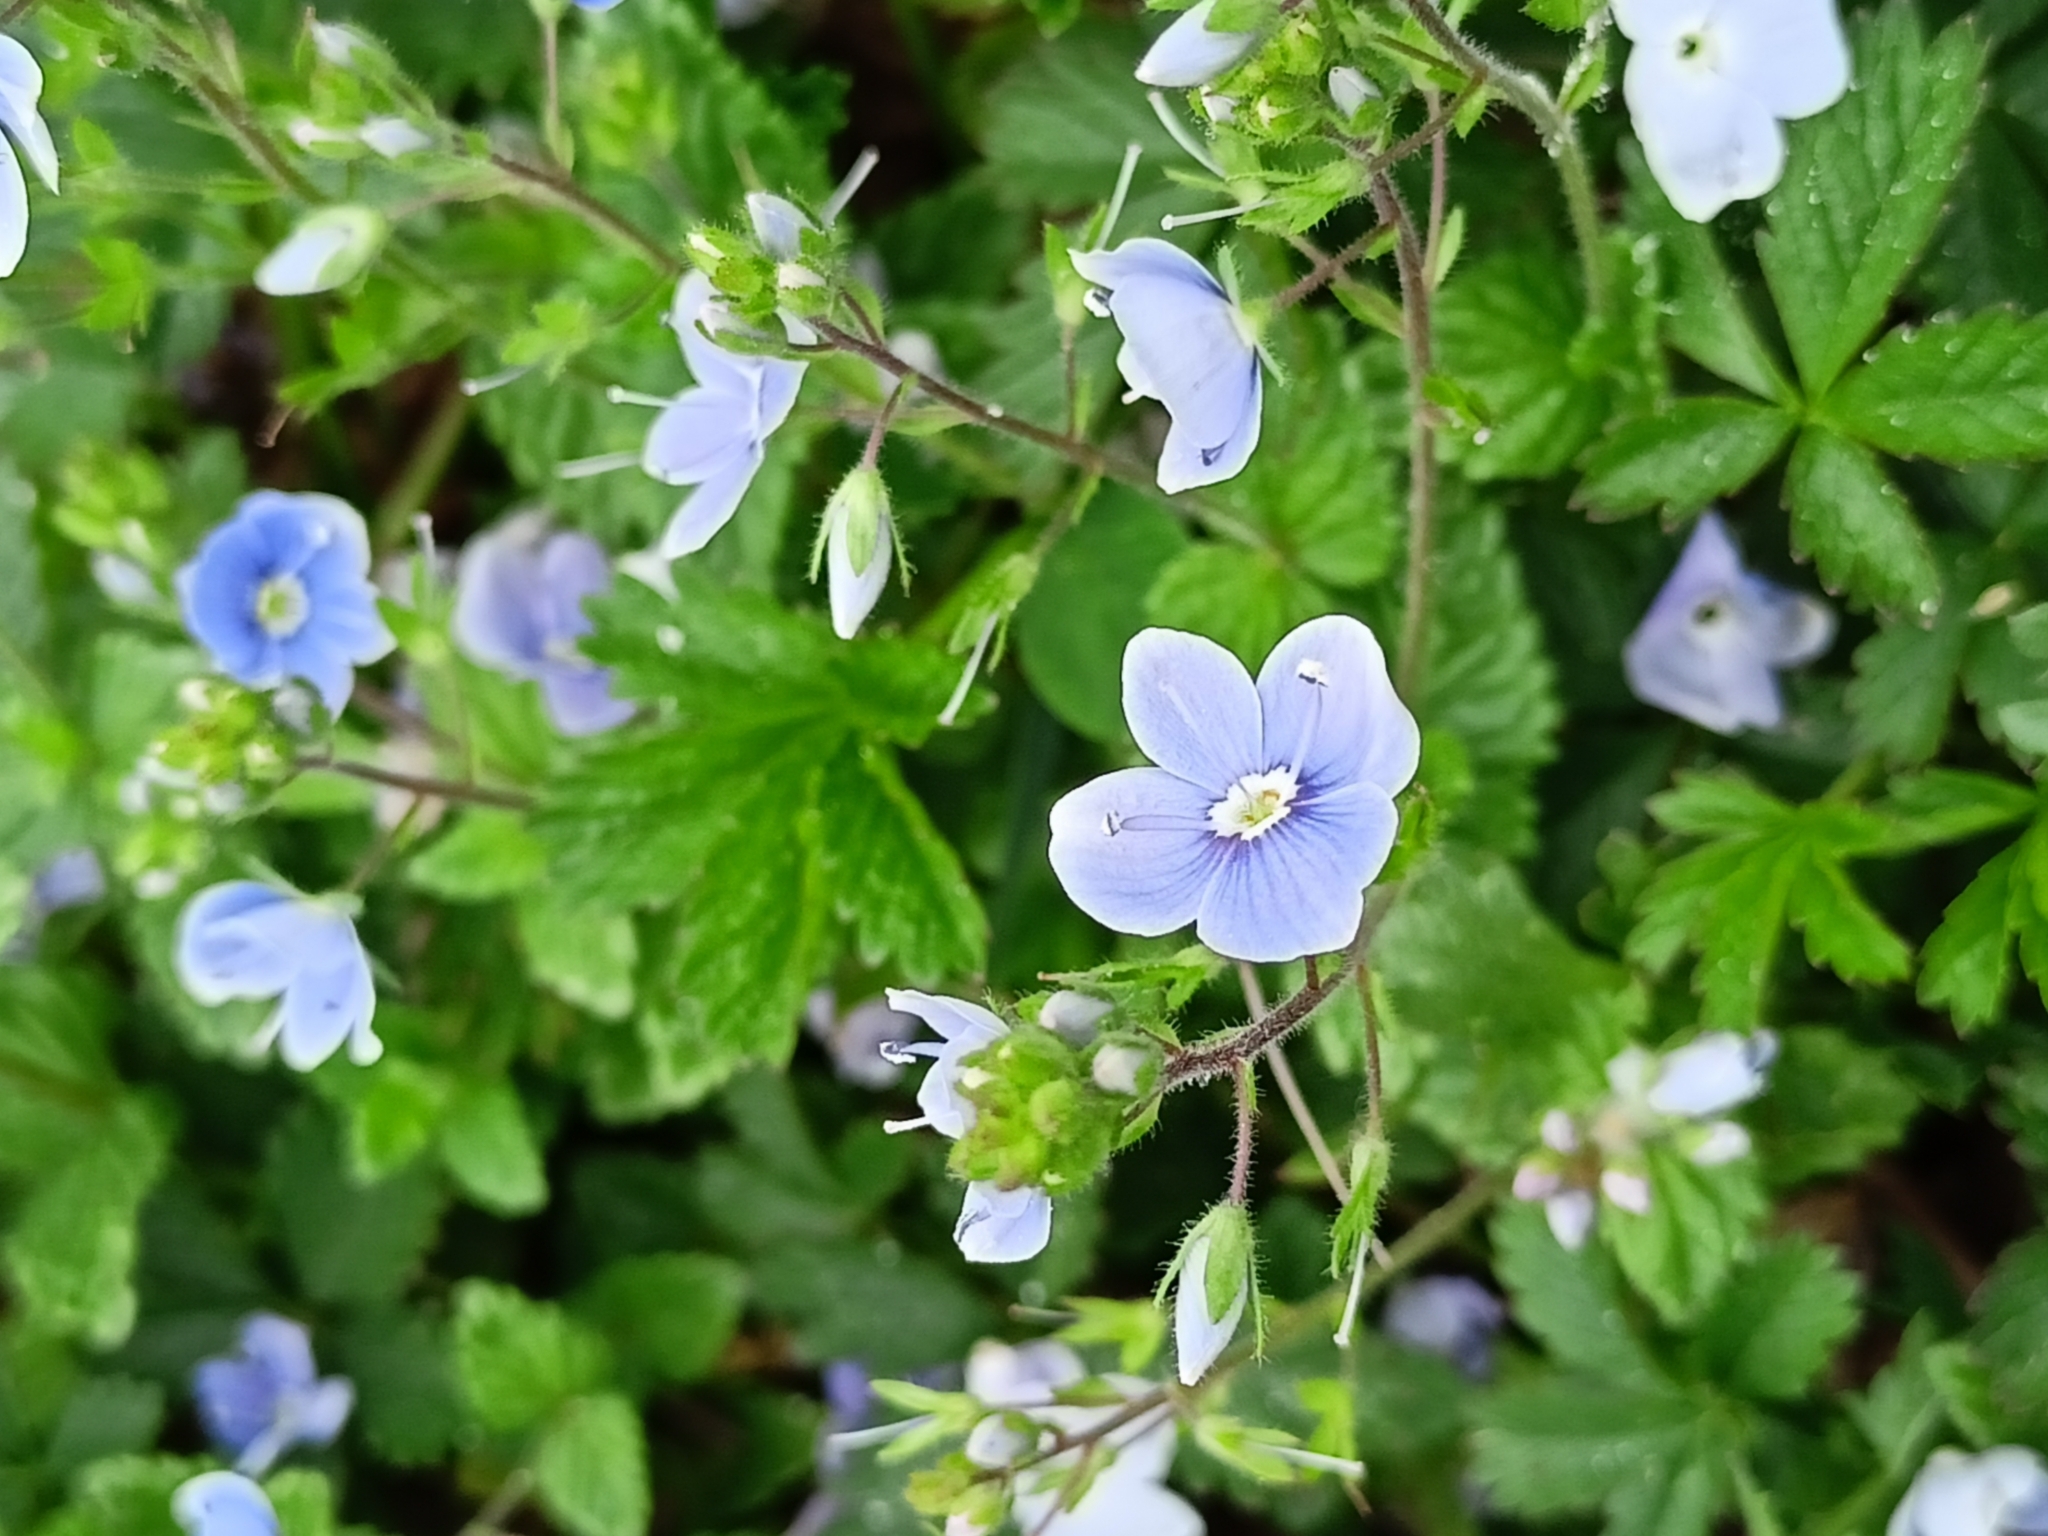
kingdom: Plantae
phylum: Tracheophyta
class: Magnoliopsida
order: Lamiales
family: Plantaginaceae
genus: Veronica
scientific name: Veronica chamaedrys
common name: Germander speedwell
